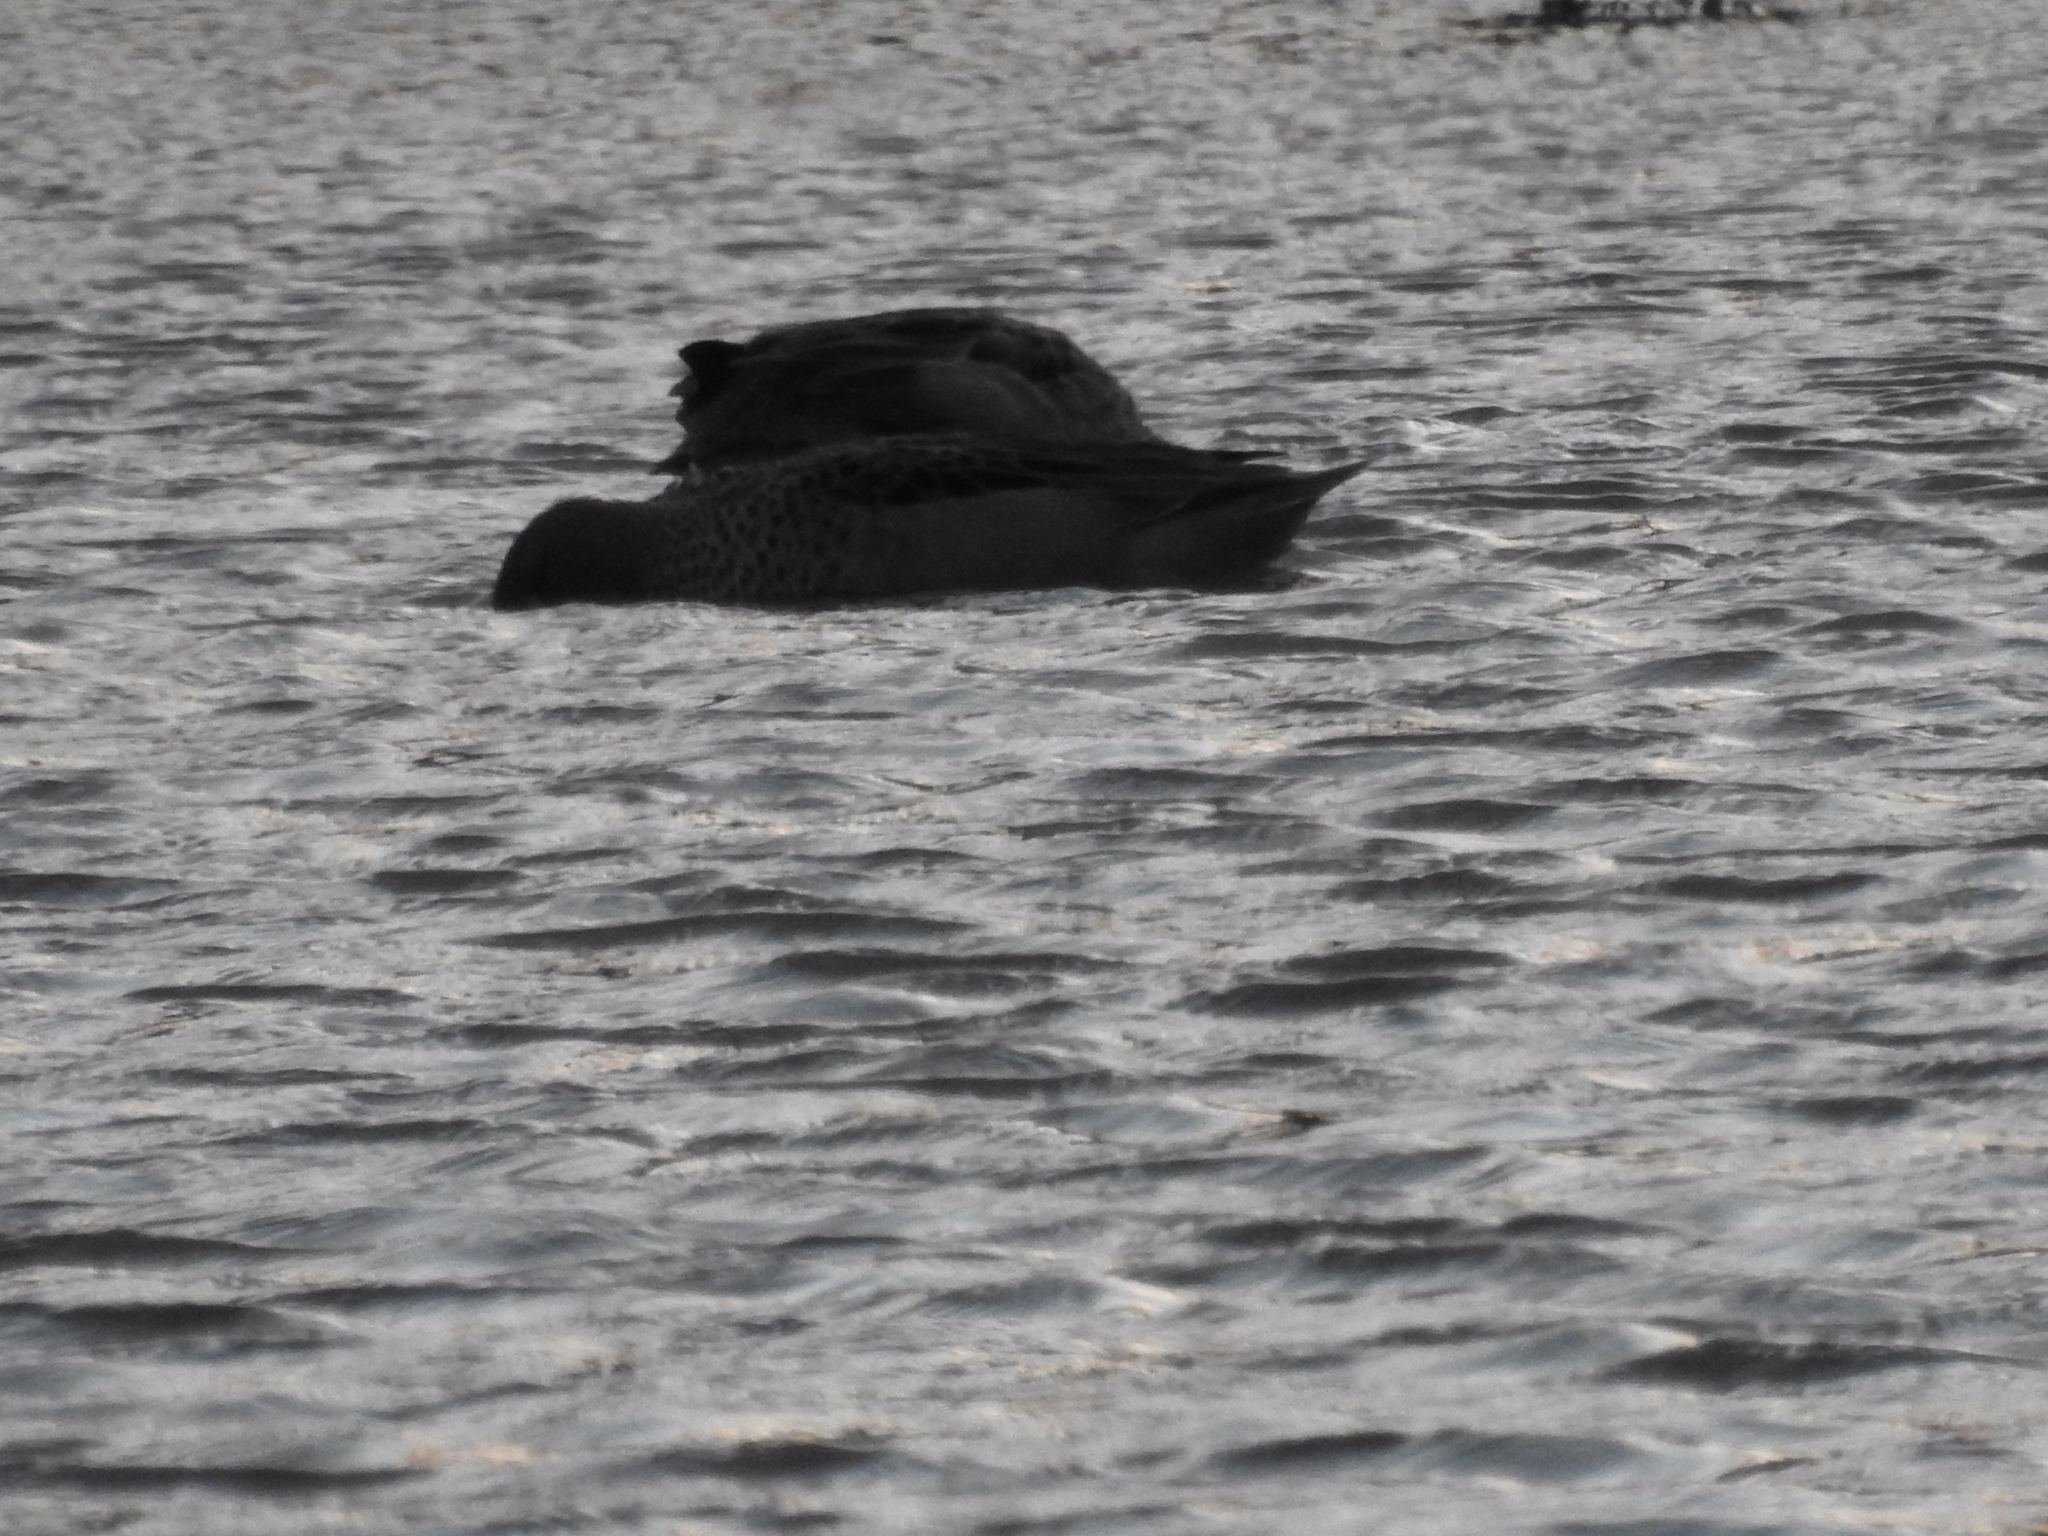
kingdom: Animalia
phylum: Chordata
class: Aves
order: Anseriformes
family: Anatidae
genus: Anas
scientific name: Anas flavirostris
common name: Yellow-billed teal
